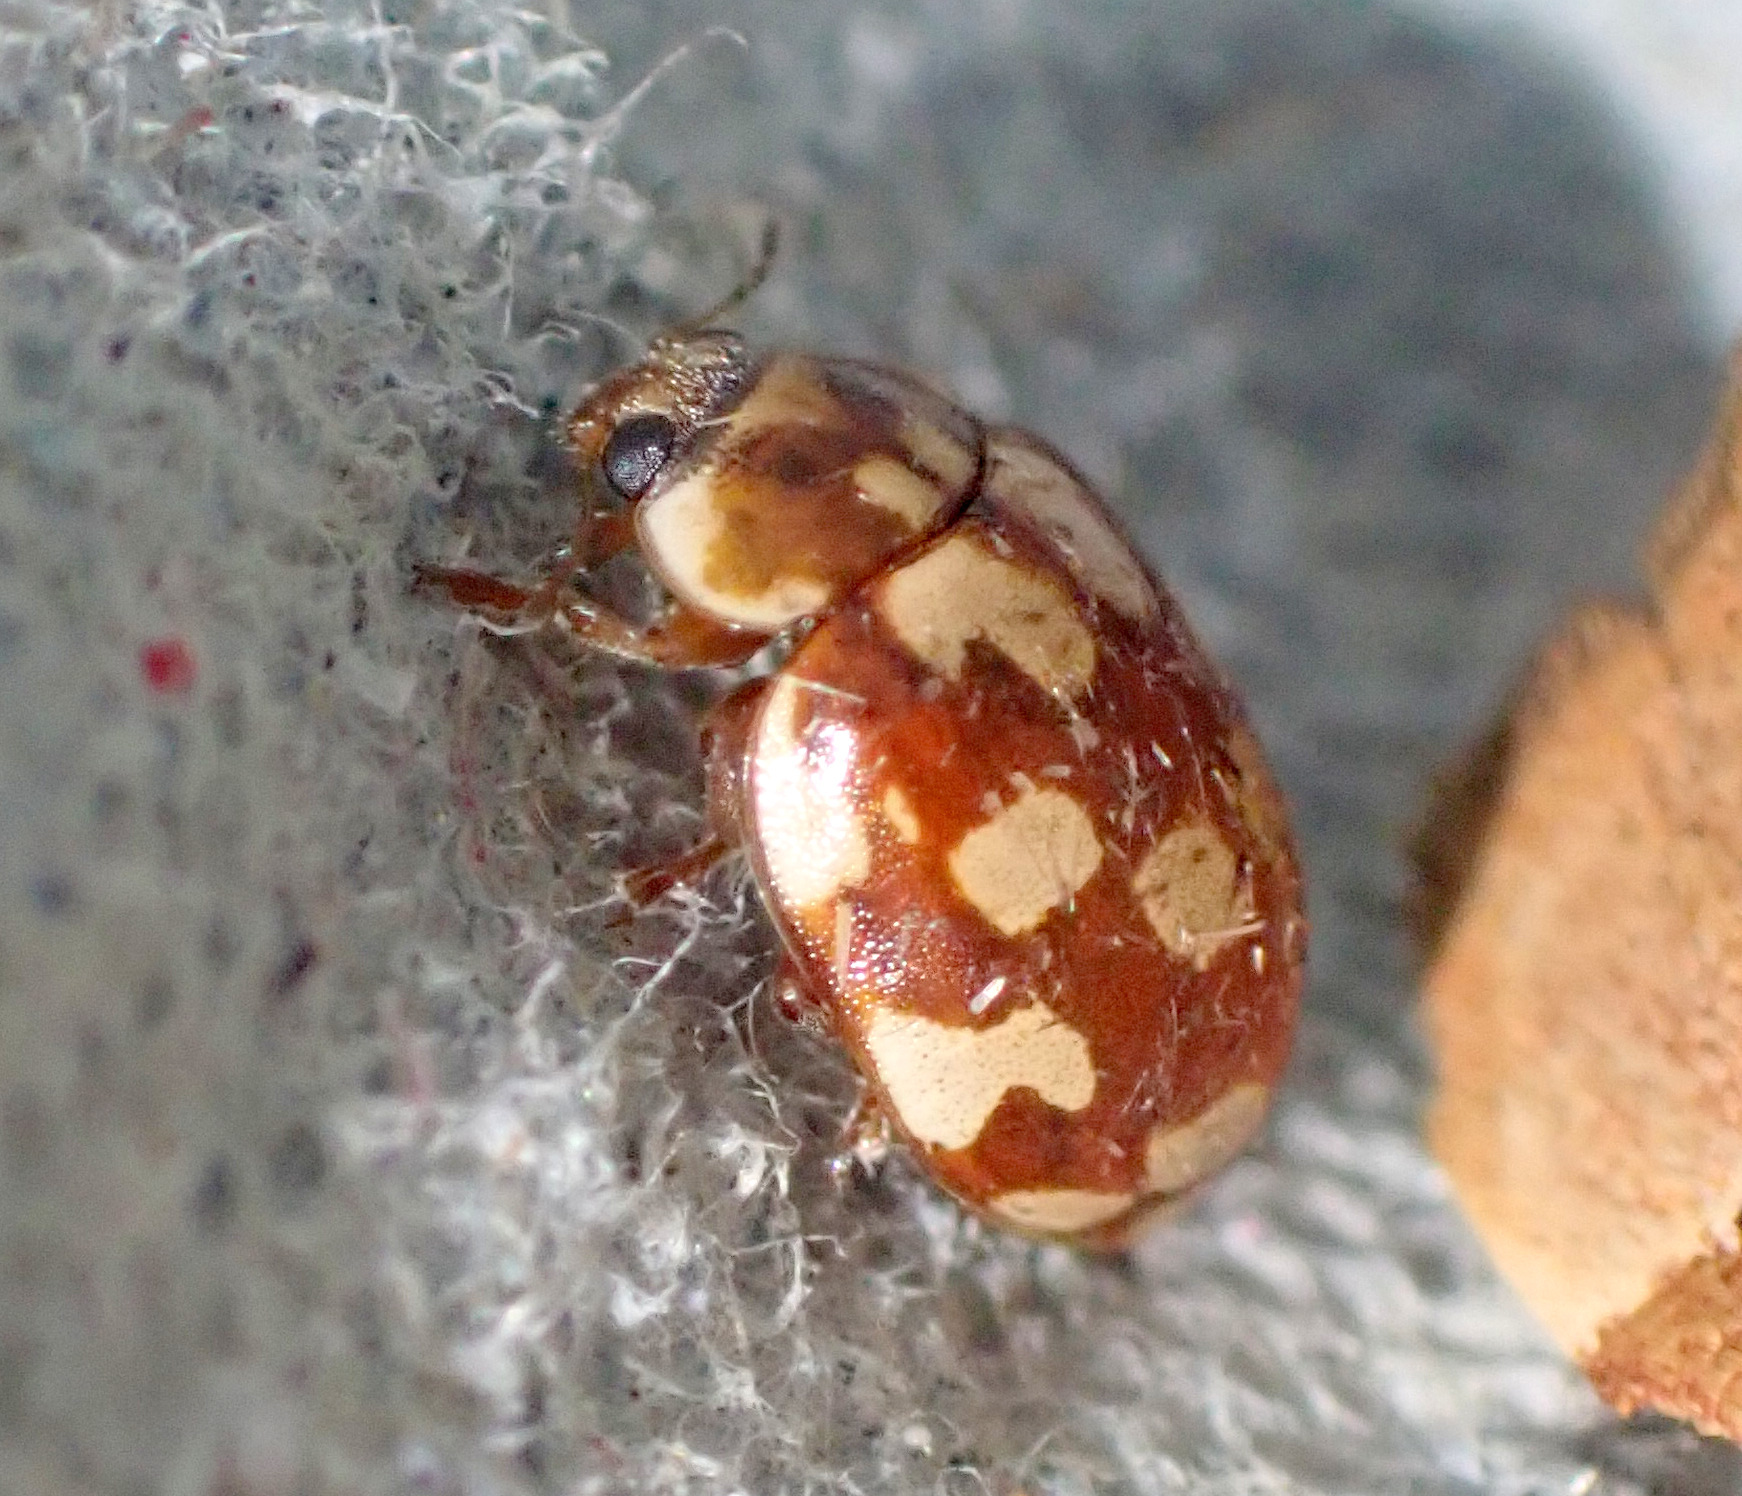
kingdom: Animalia
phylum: Arthropoda
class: Insecta
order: Coleoptera
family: Coccinellidae
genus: Myrrha
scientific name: Myrrha octodecimguttata
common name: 18-spot ladybird
